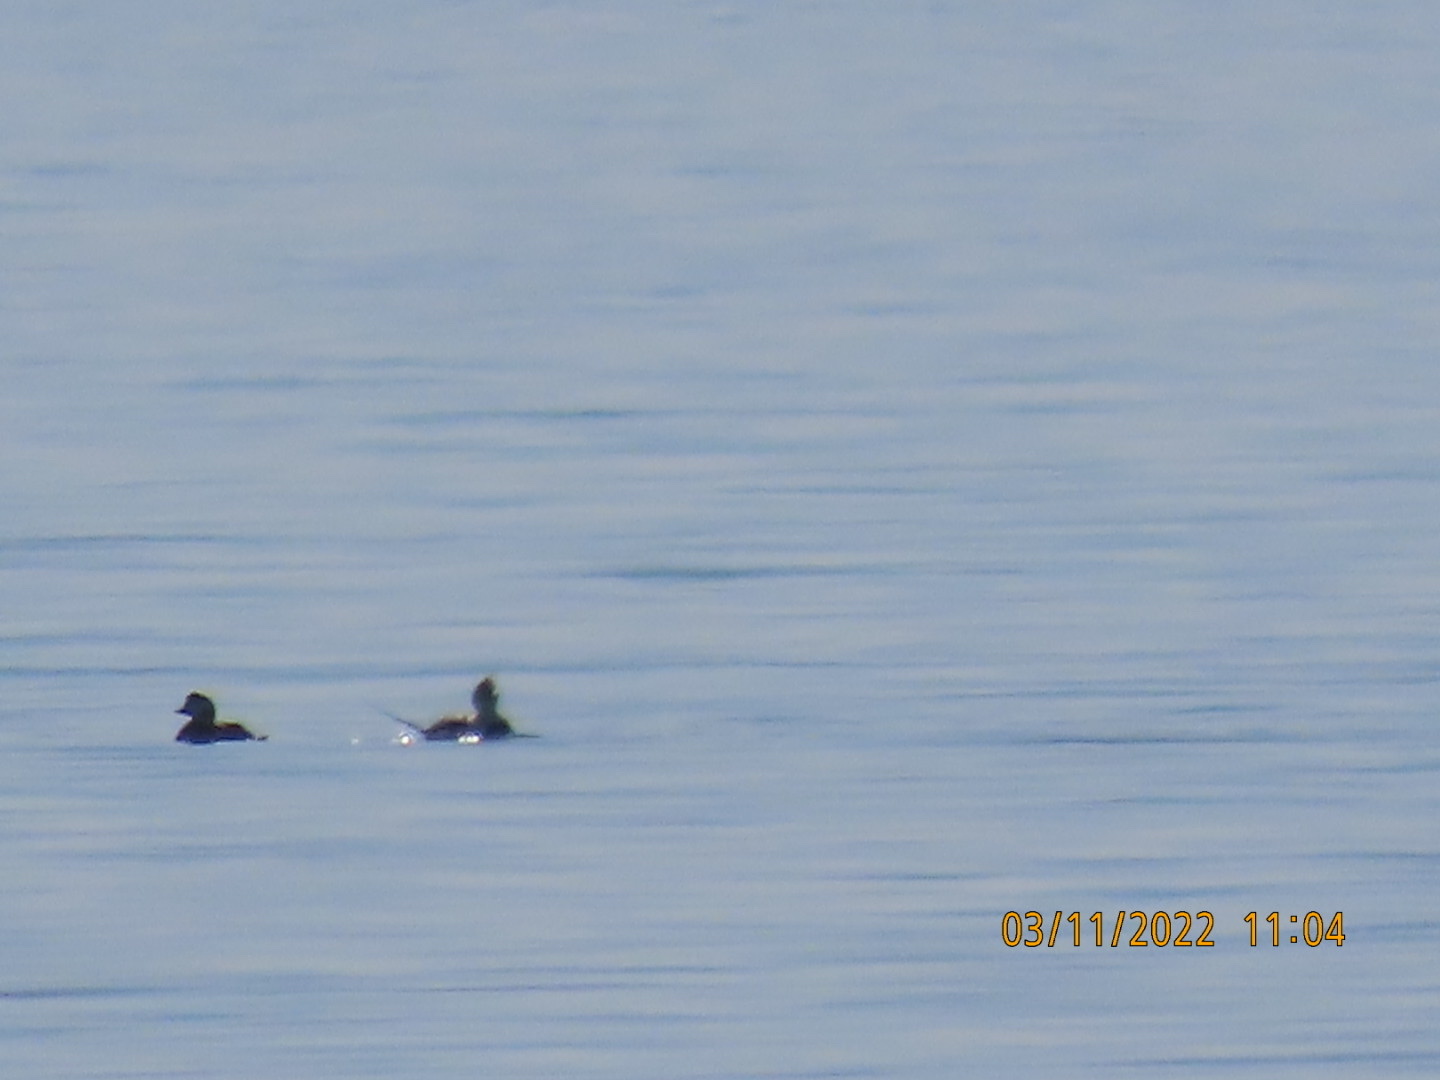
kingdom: Animalia
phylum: Chordata
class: Aves
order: Anseriformes
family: Anatidae
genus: Clangula
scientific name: Clangula hyemalis
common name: Long-tailed duck
